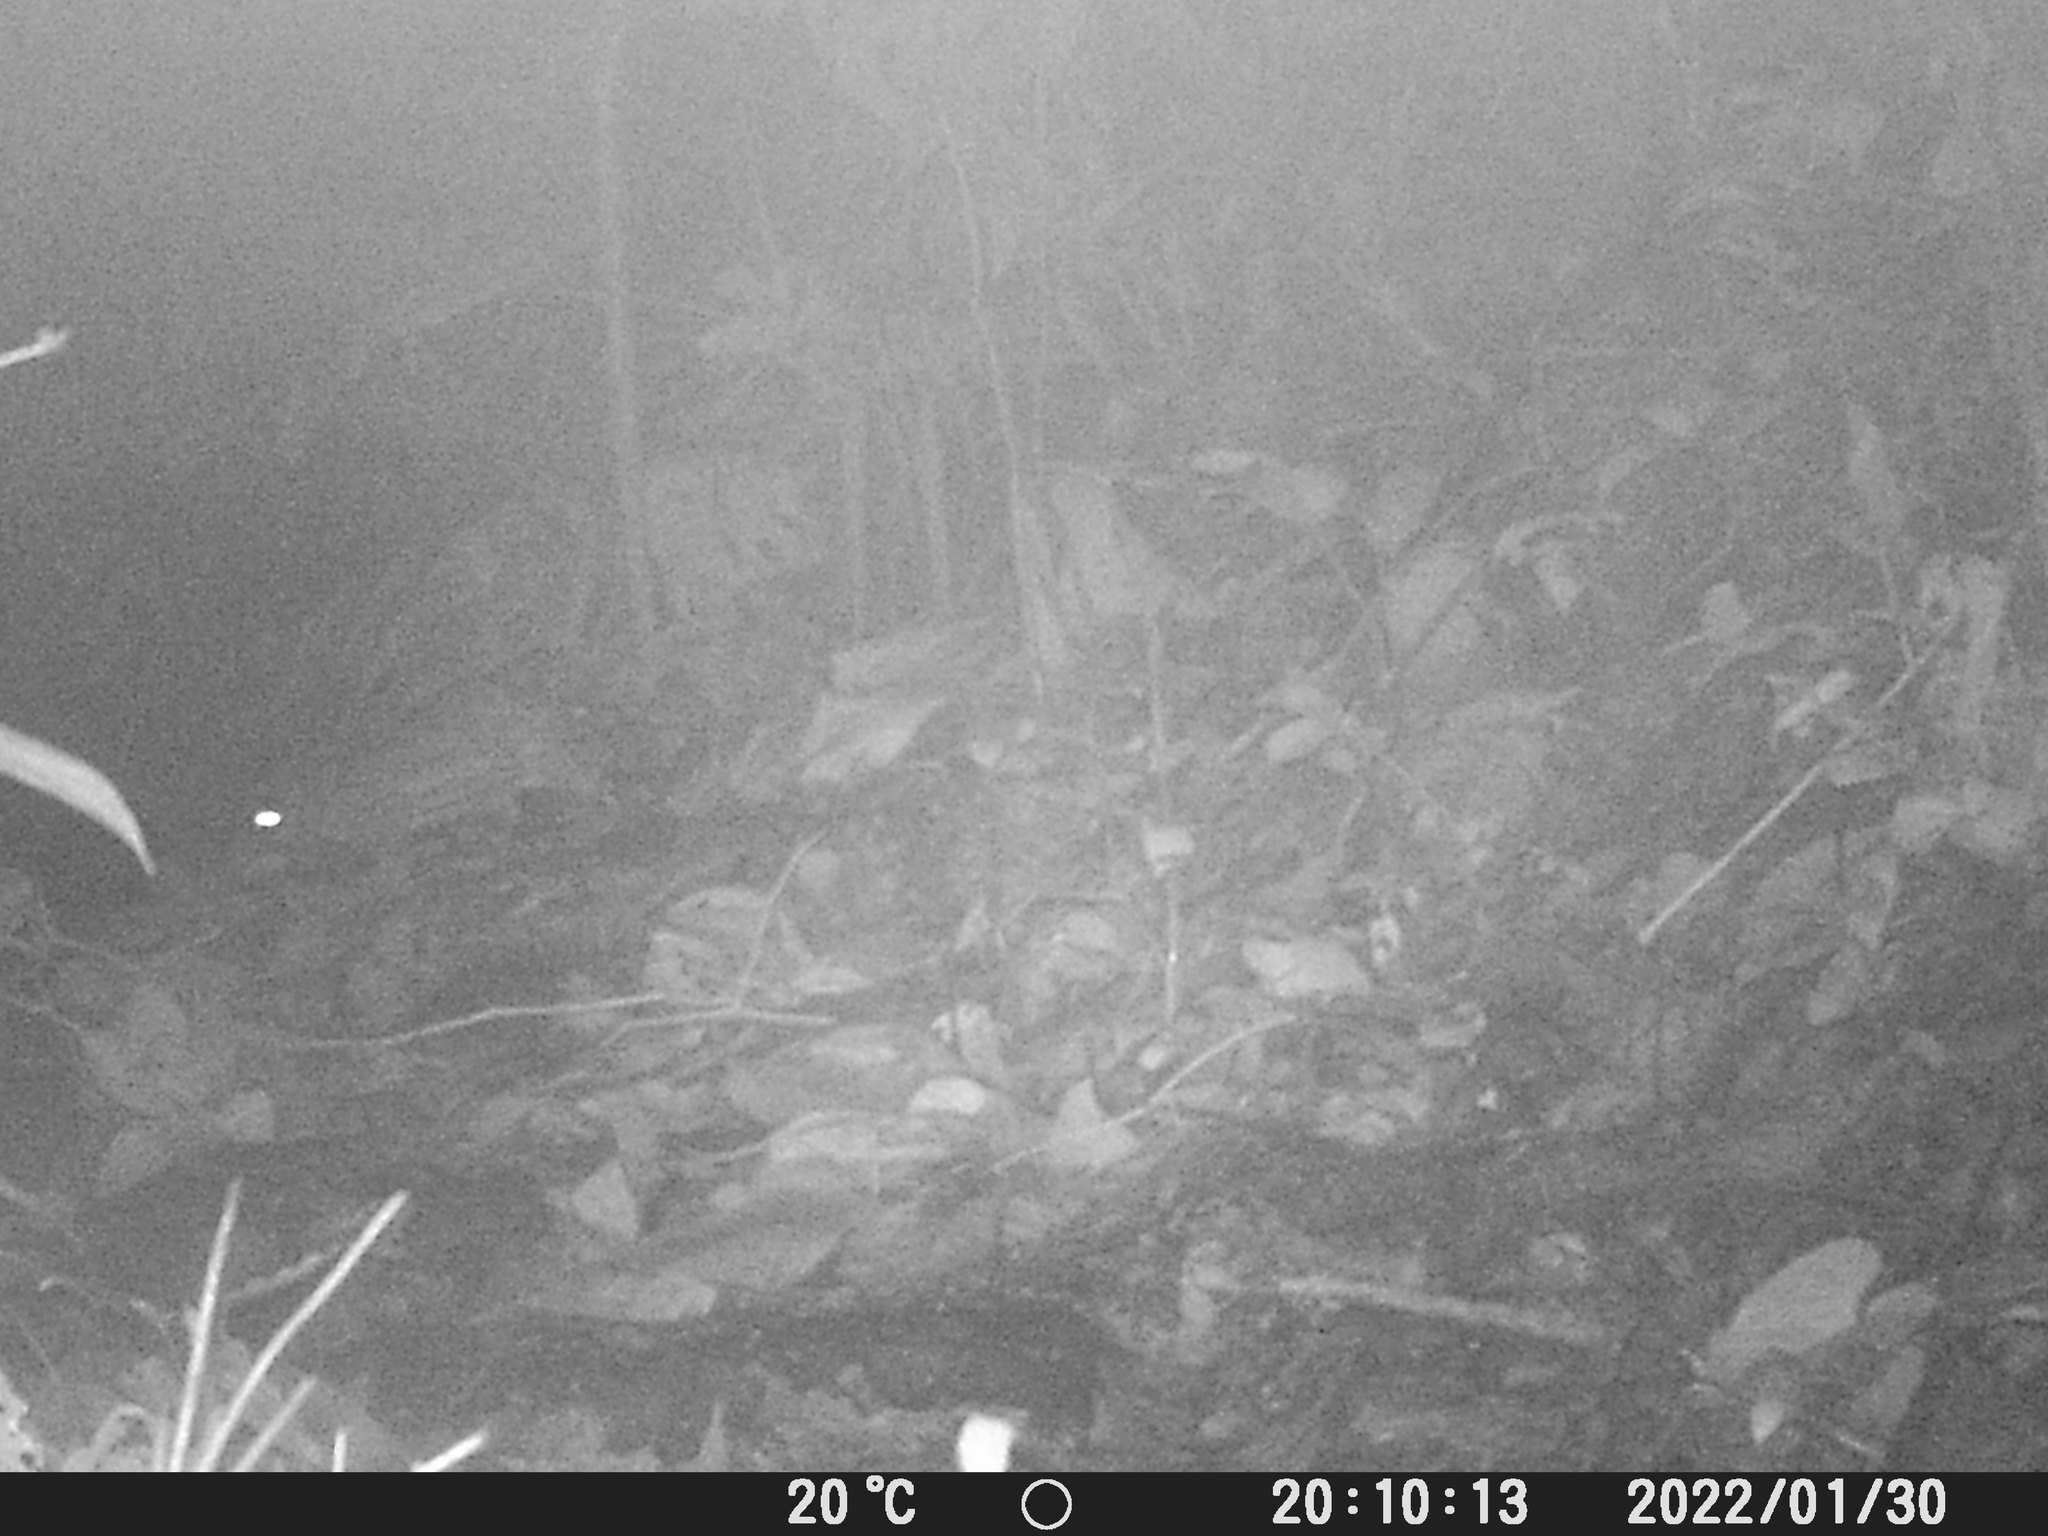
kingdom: Animalia
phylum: Chordata
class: Mammalia
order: Rodentia
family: Cuniculidae
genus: Cuniculus
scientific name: Cuniculus paca
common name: Lowland paca
